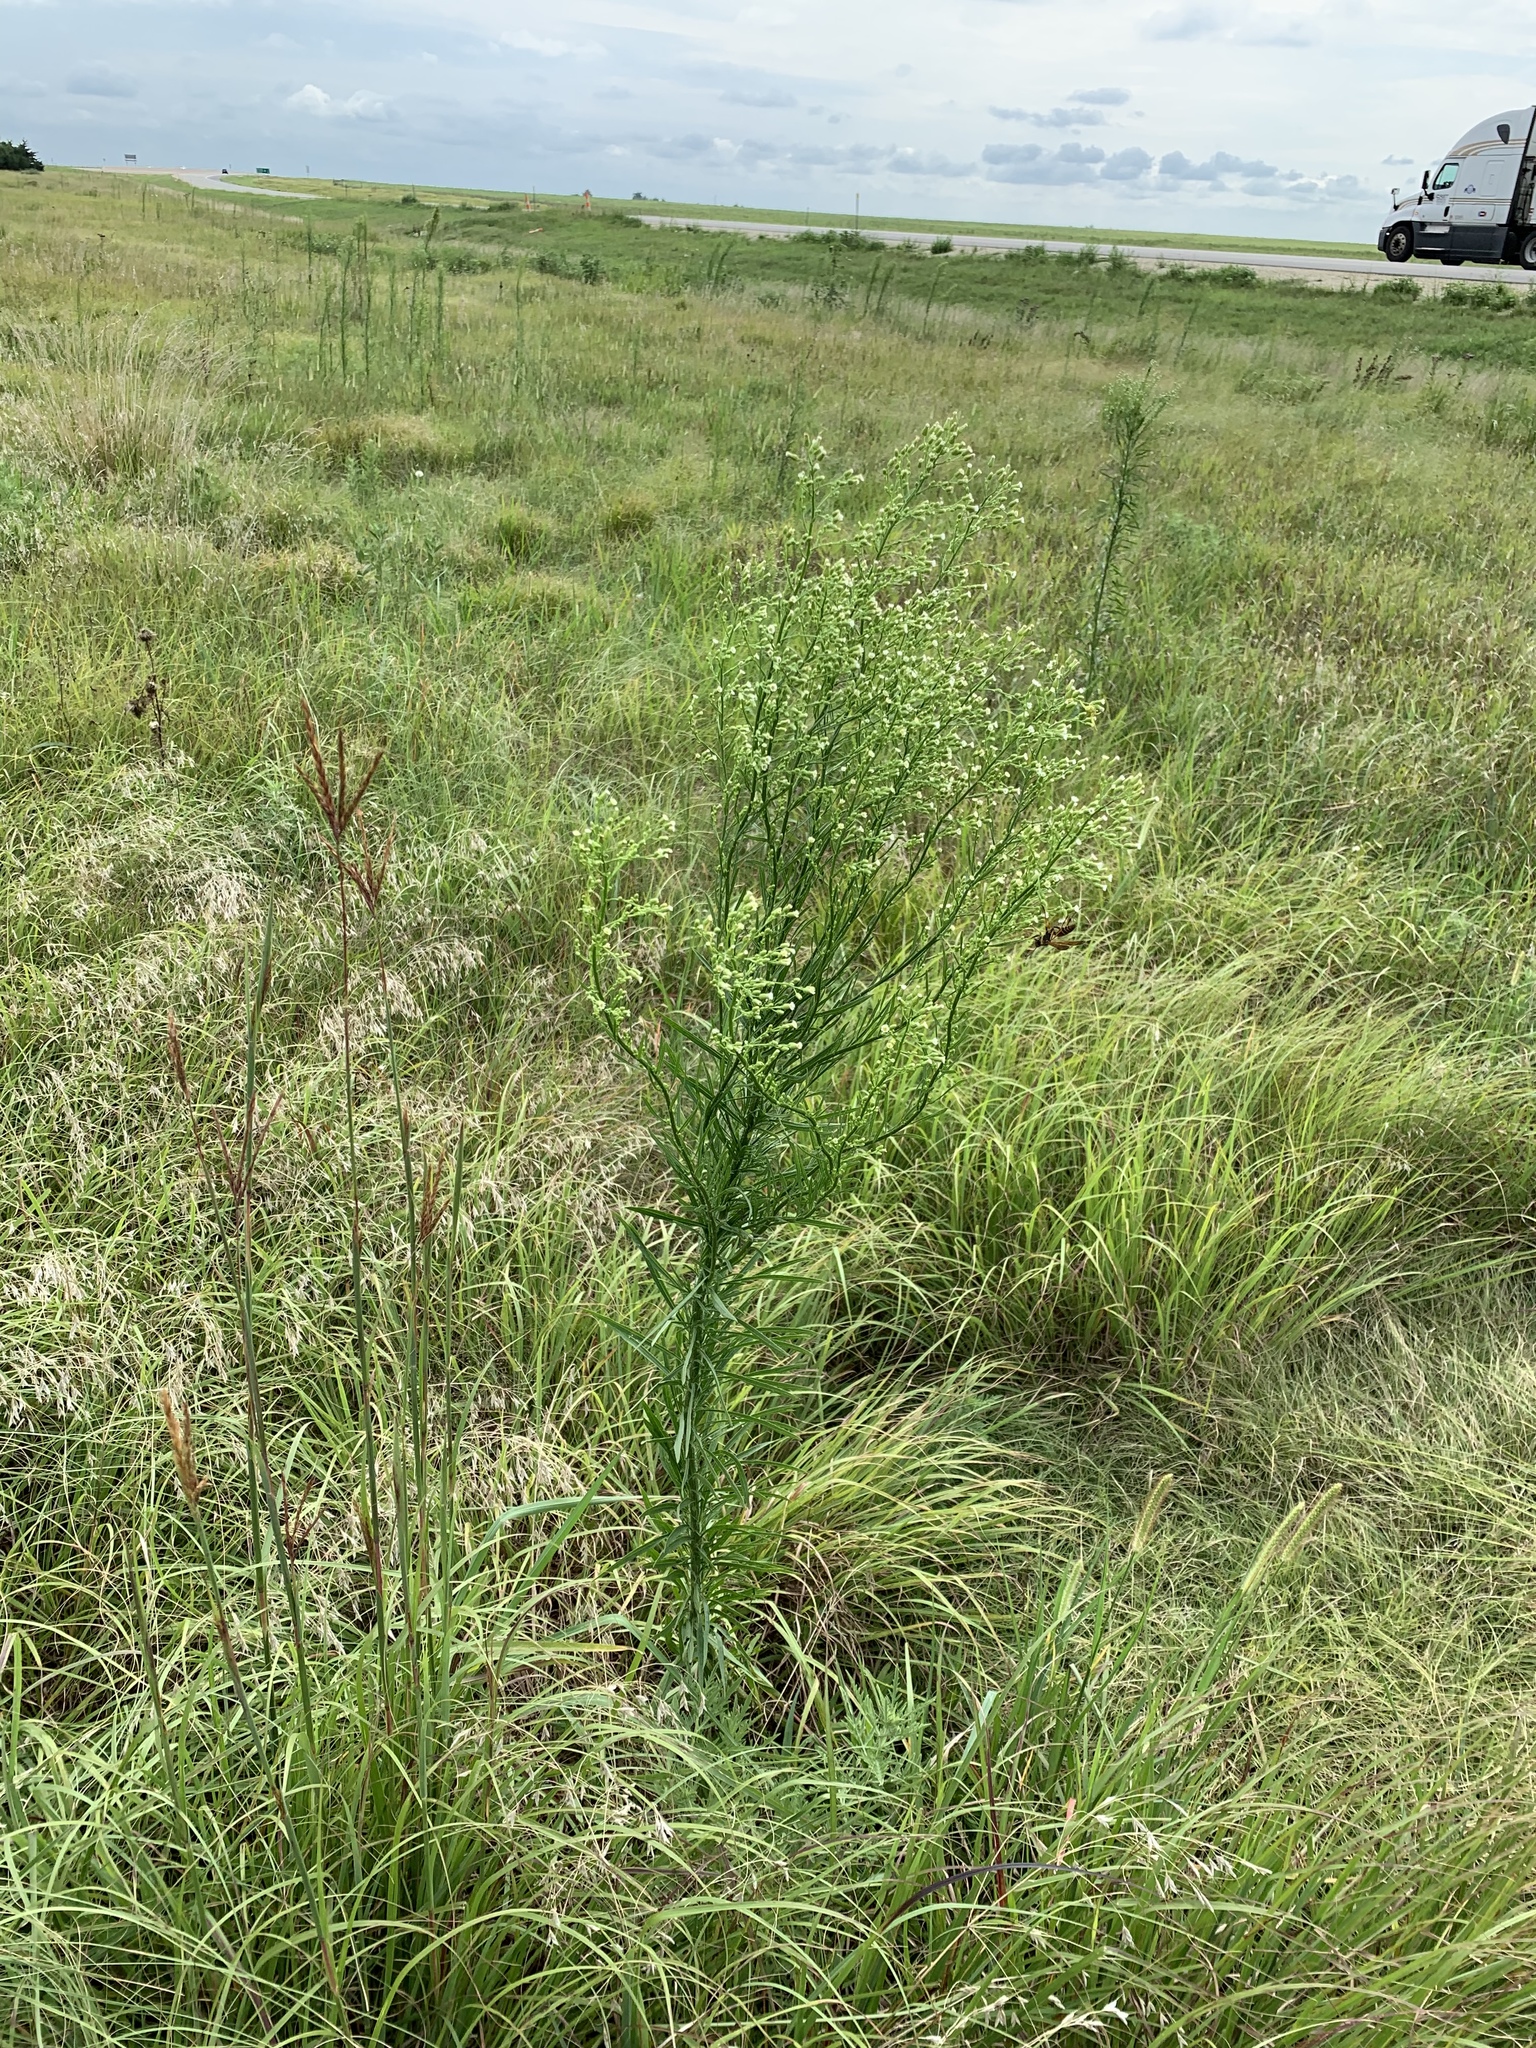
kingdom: Plantae
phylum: Tracheophyta
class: Magnoliopsida
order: Asterales
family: Asteraceae
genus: Erigeron
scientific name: Erigeron canadensis
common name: Canadian fleabane
